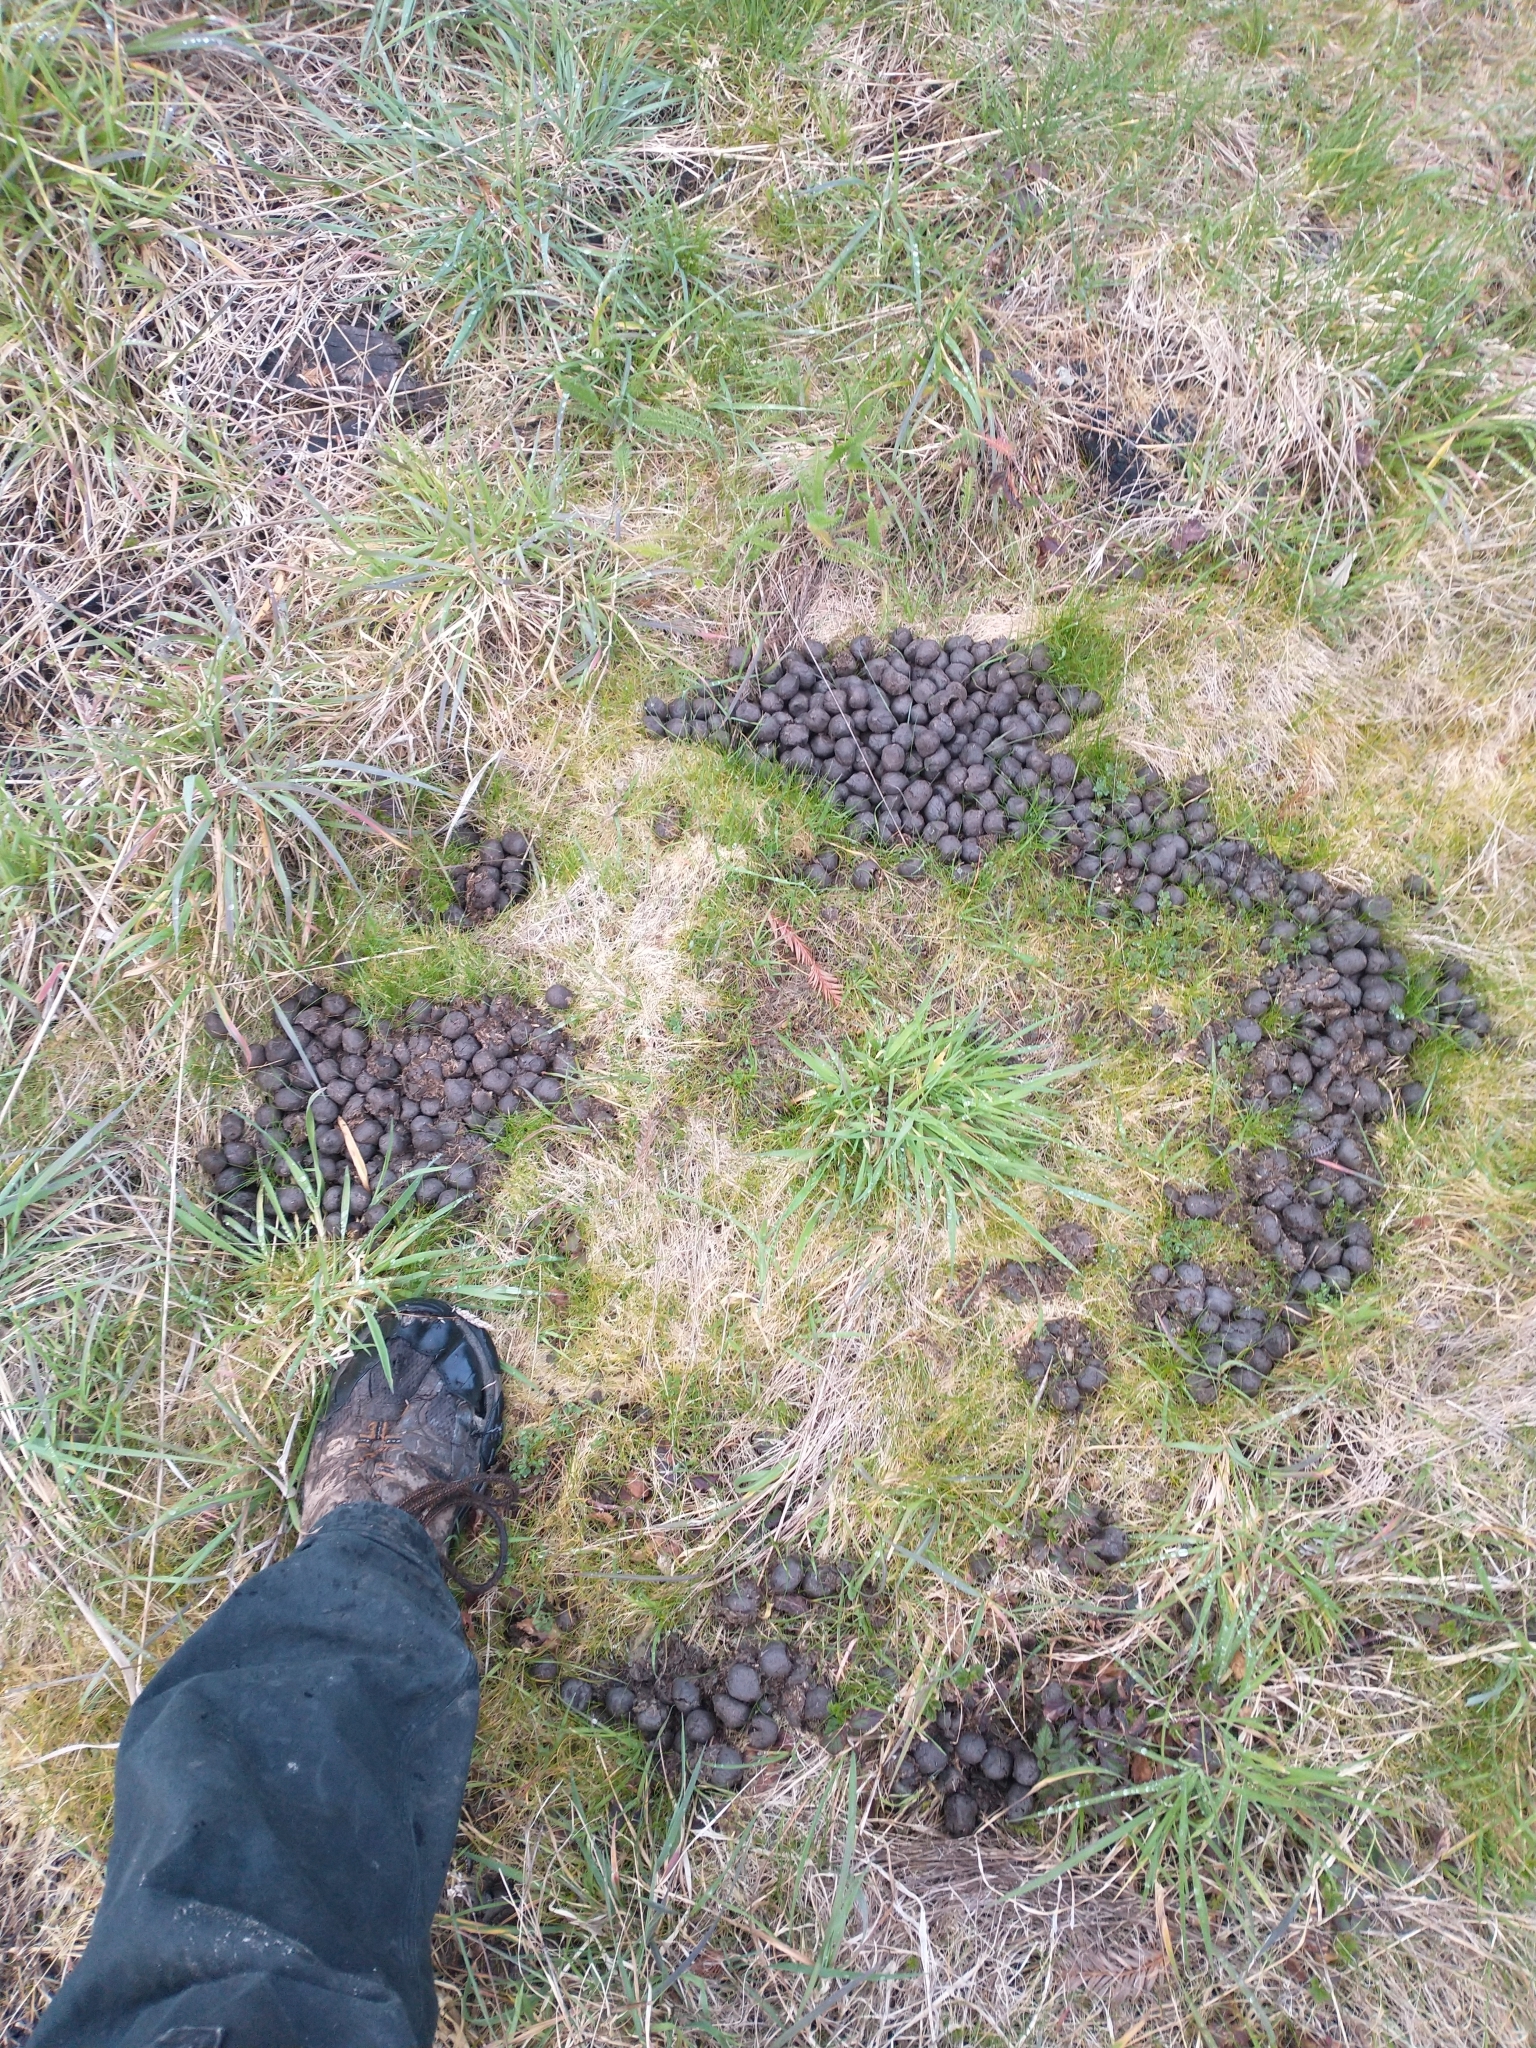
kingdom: Animalia
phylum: Chordata
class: Mammalia
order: Artiodactyla
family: Cervidae
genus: Cervus
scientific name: Cervus elaphus
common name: Red deer
